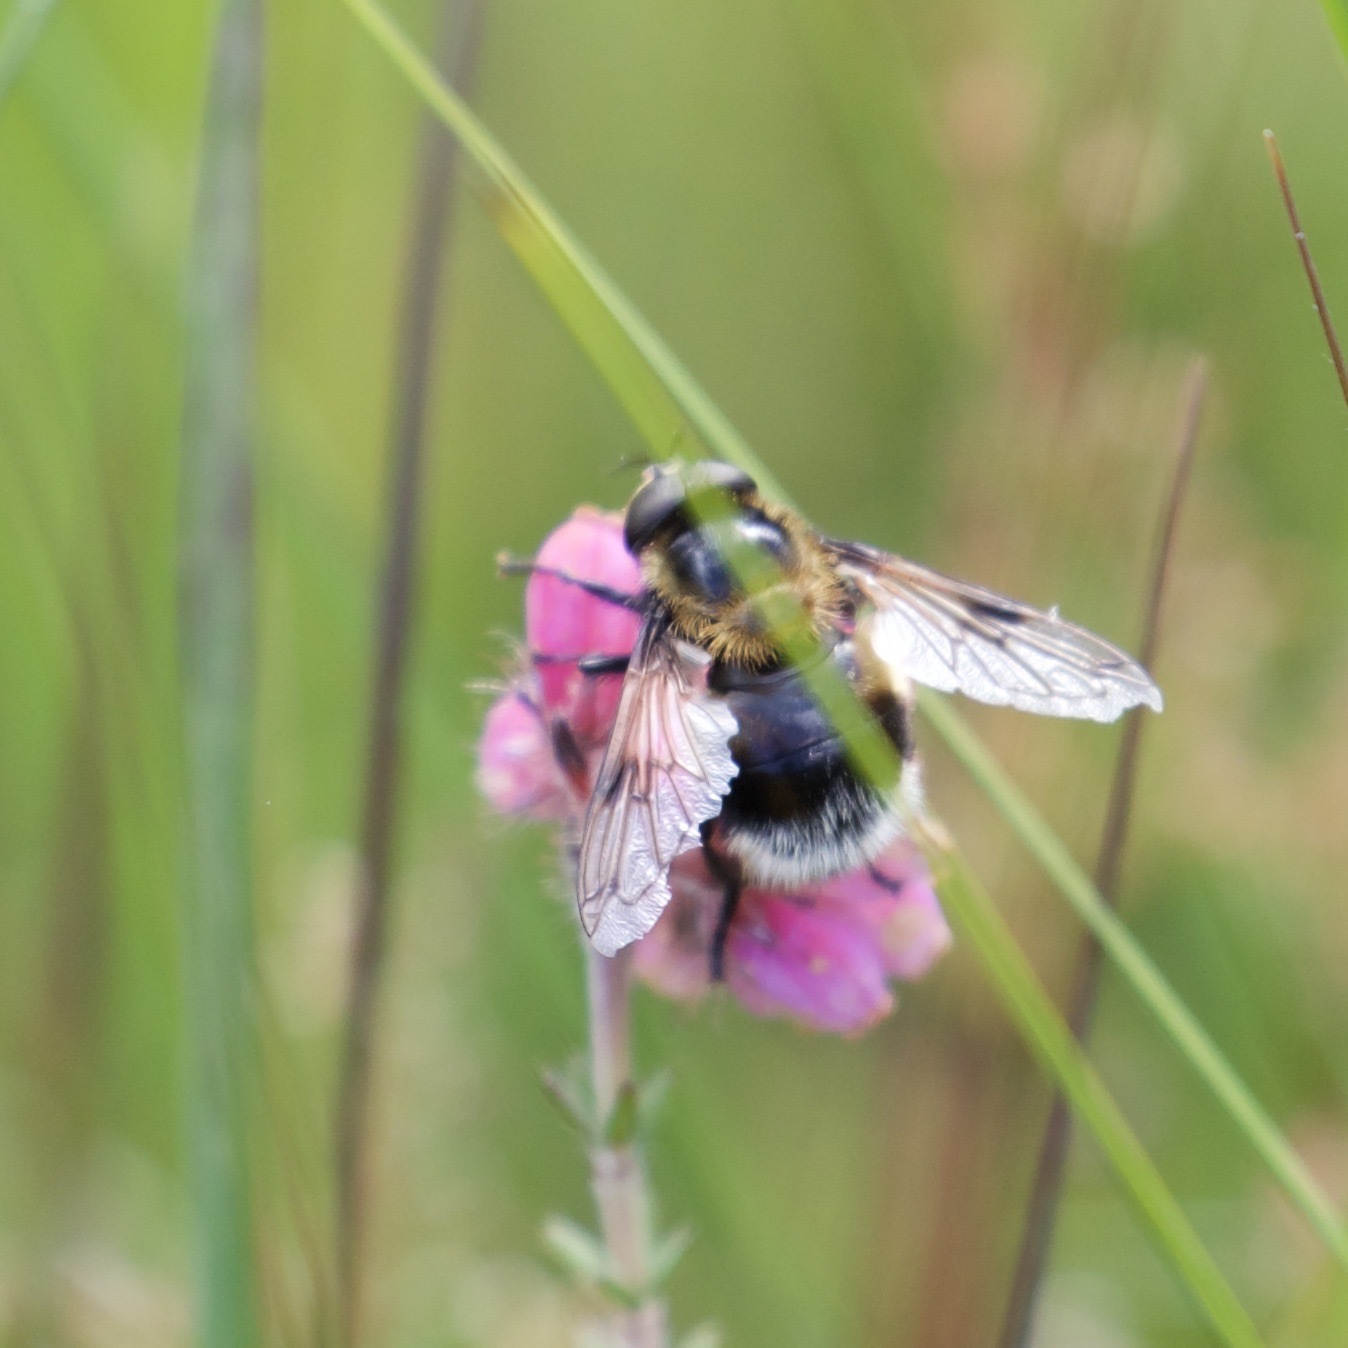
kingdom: Animalia
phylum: Arthropoda
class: Insecta
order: Diptera
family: Syrphidae
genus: Volucella
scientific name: Volucella bombylans
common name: Bumble bee hover fly
